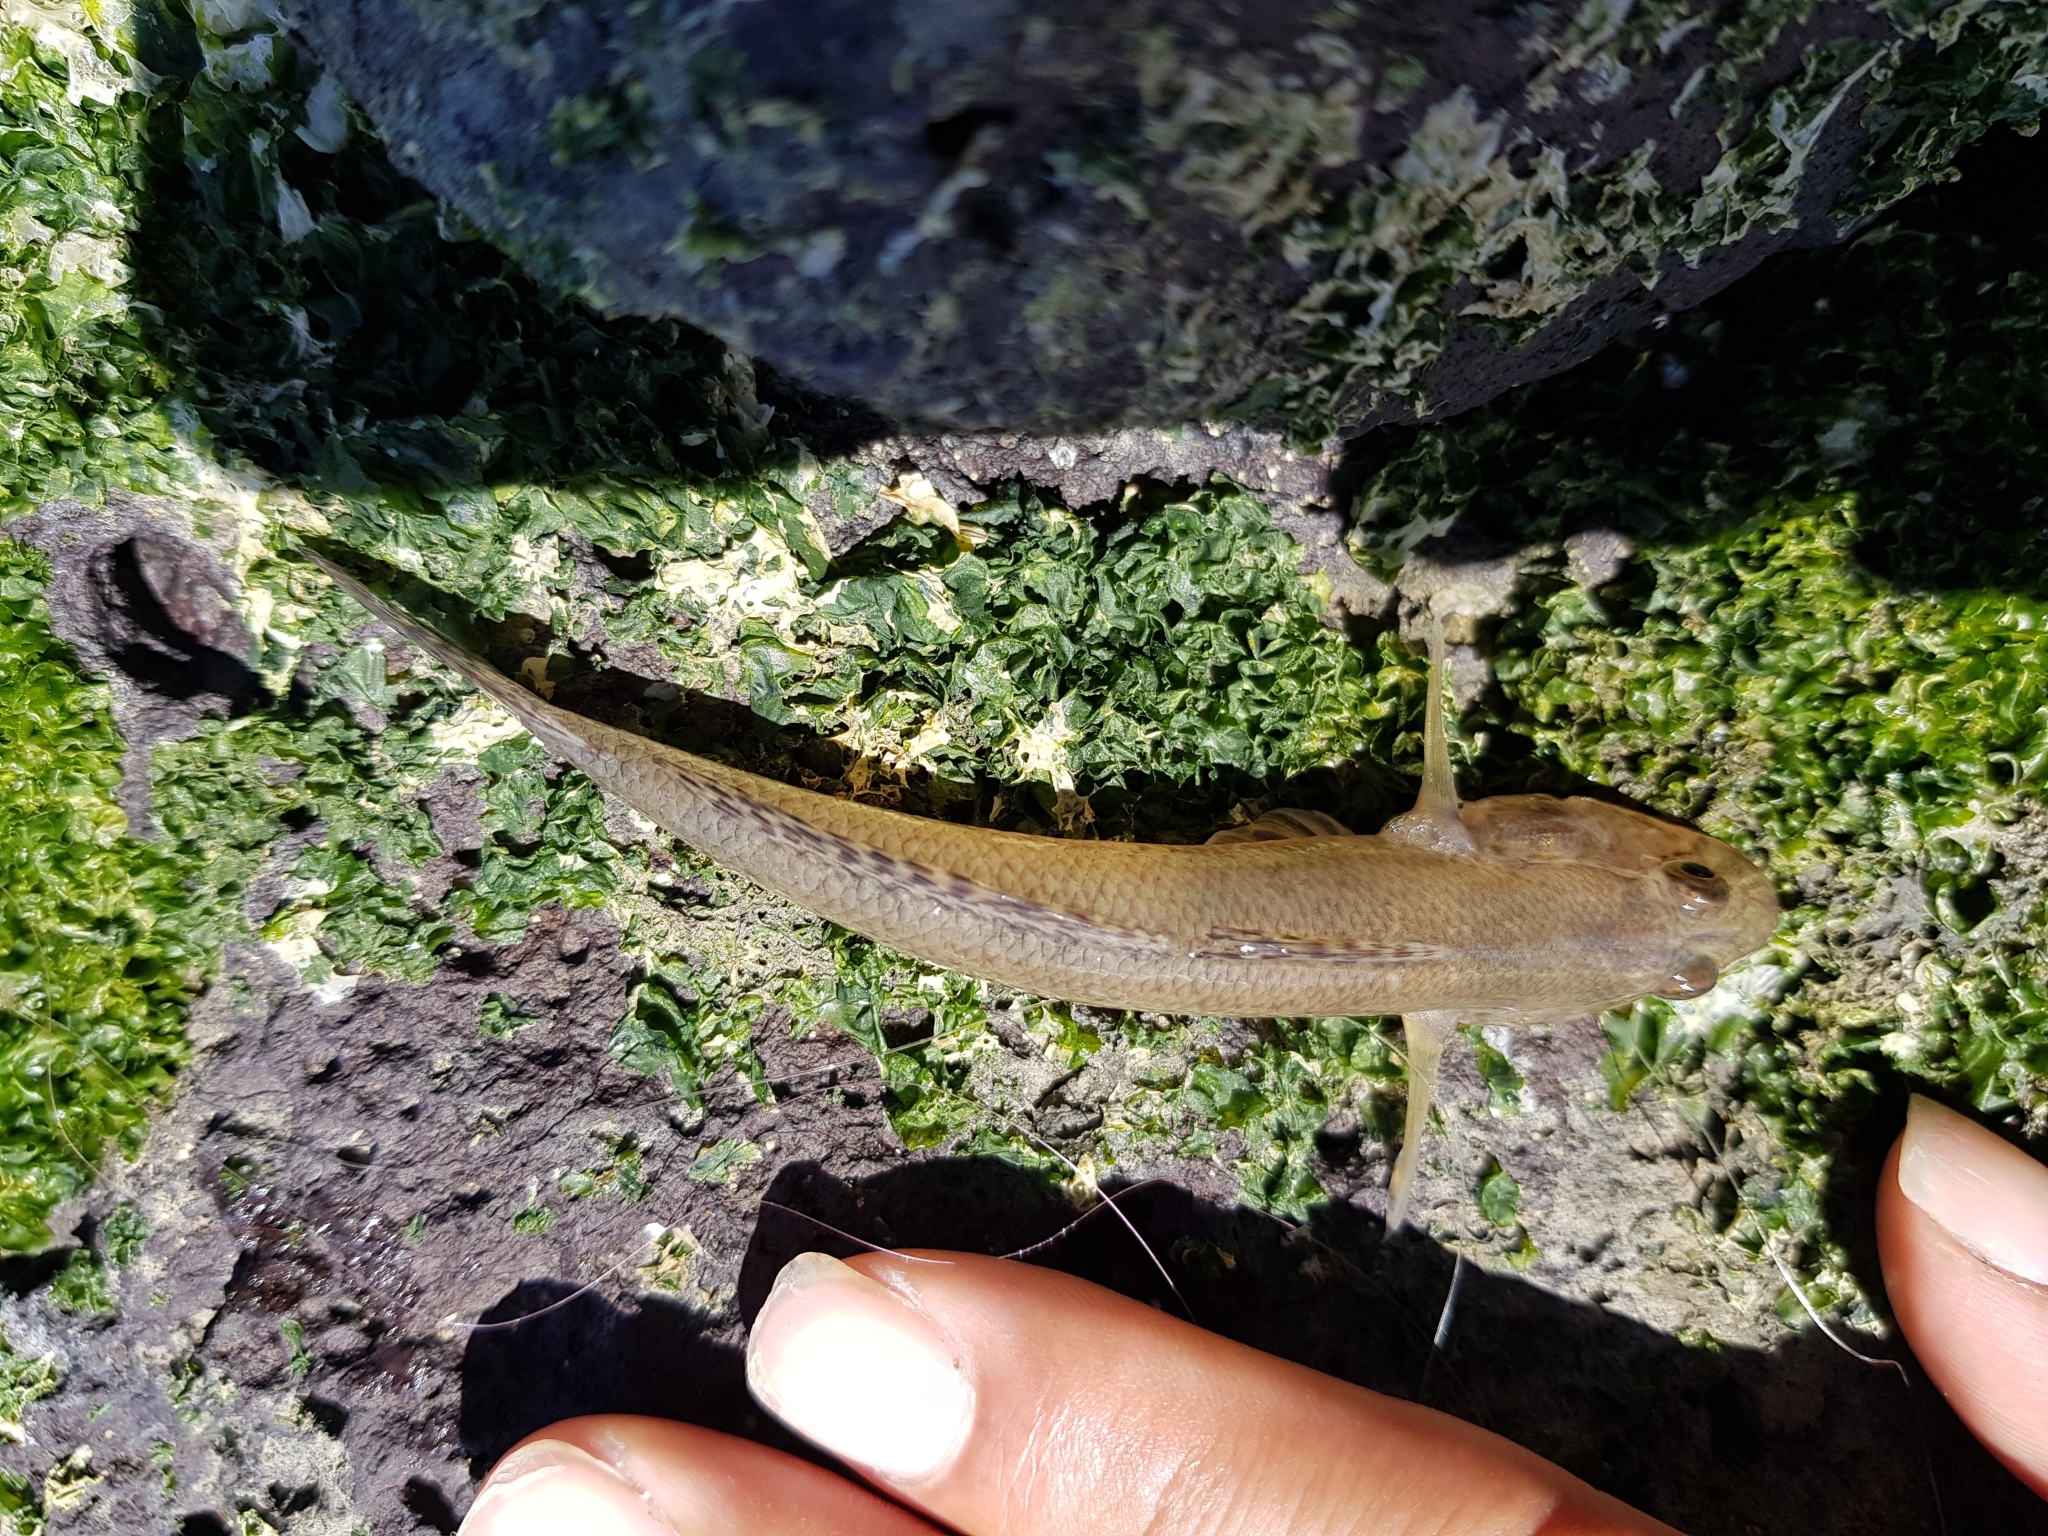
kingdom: Animalia
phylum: Chordata
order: Perciformes
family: Gobiidae
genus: Acanthogobius
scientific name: Acanthogobius flavimanus
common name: Yellowfin goby
